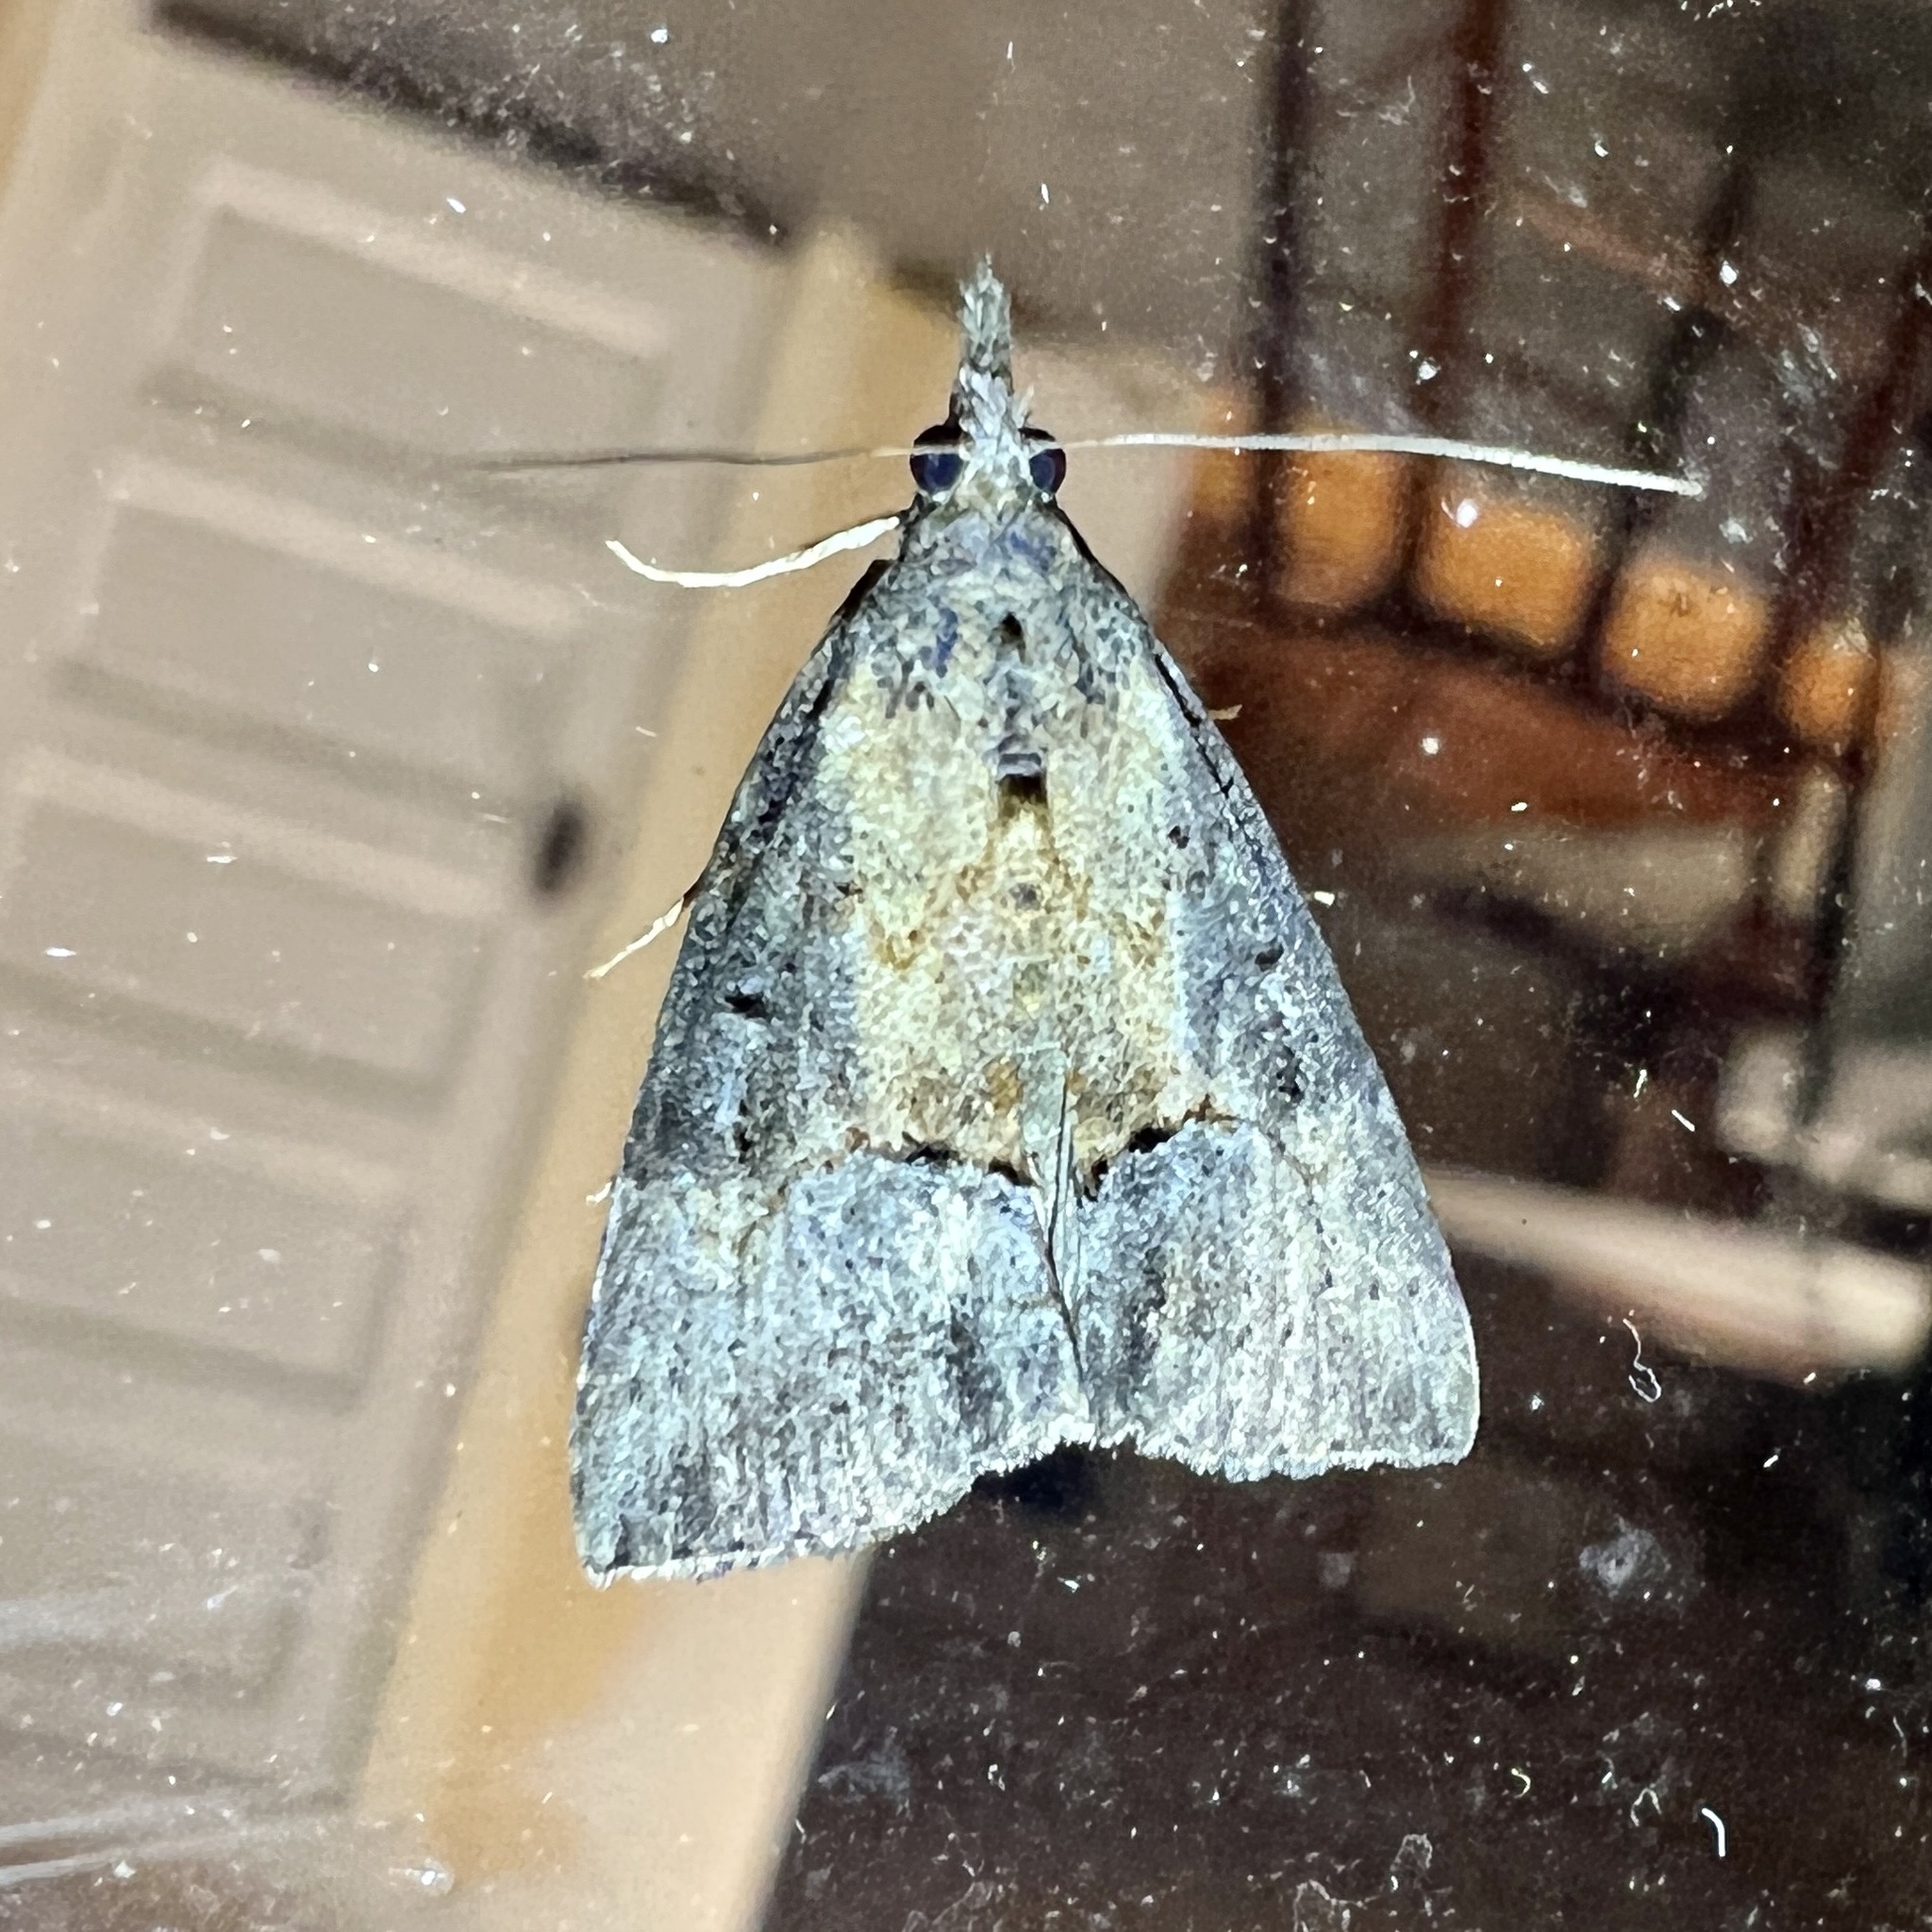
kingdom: Animalia
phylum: Arthropoda
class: Insecta
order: Lepidoptera
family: Erebidae
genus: Hypena
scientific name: Hypena scabra
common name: Green cloverworm
